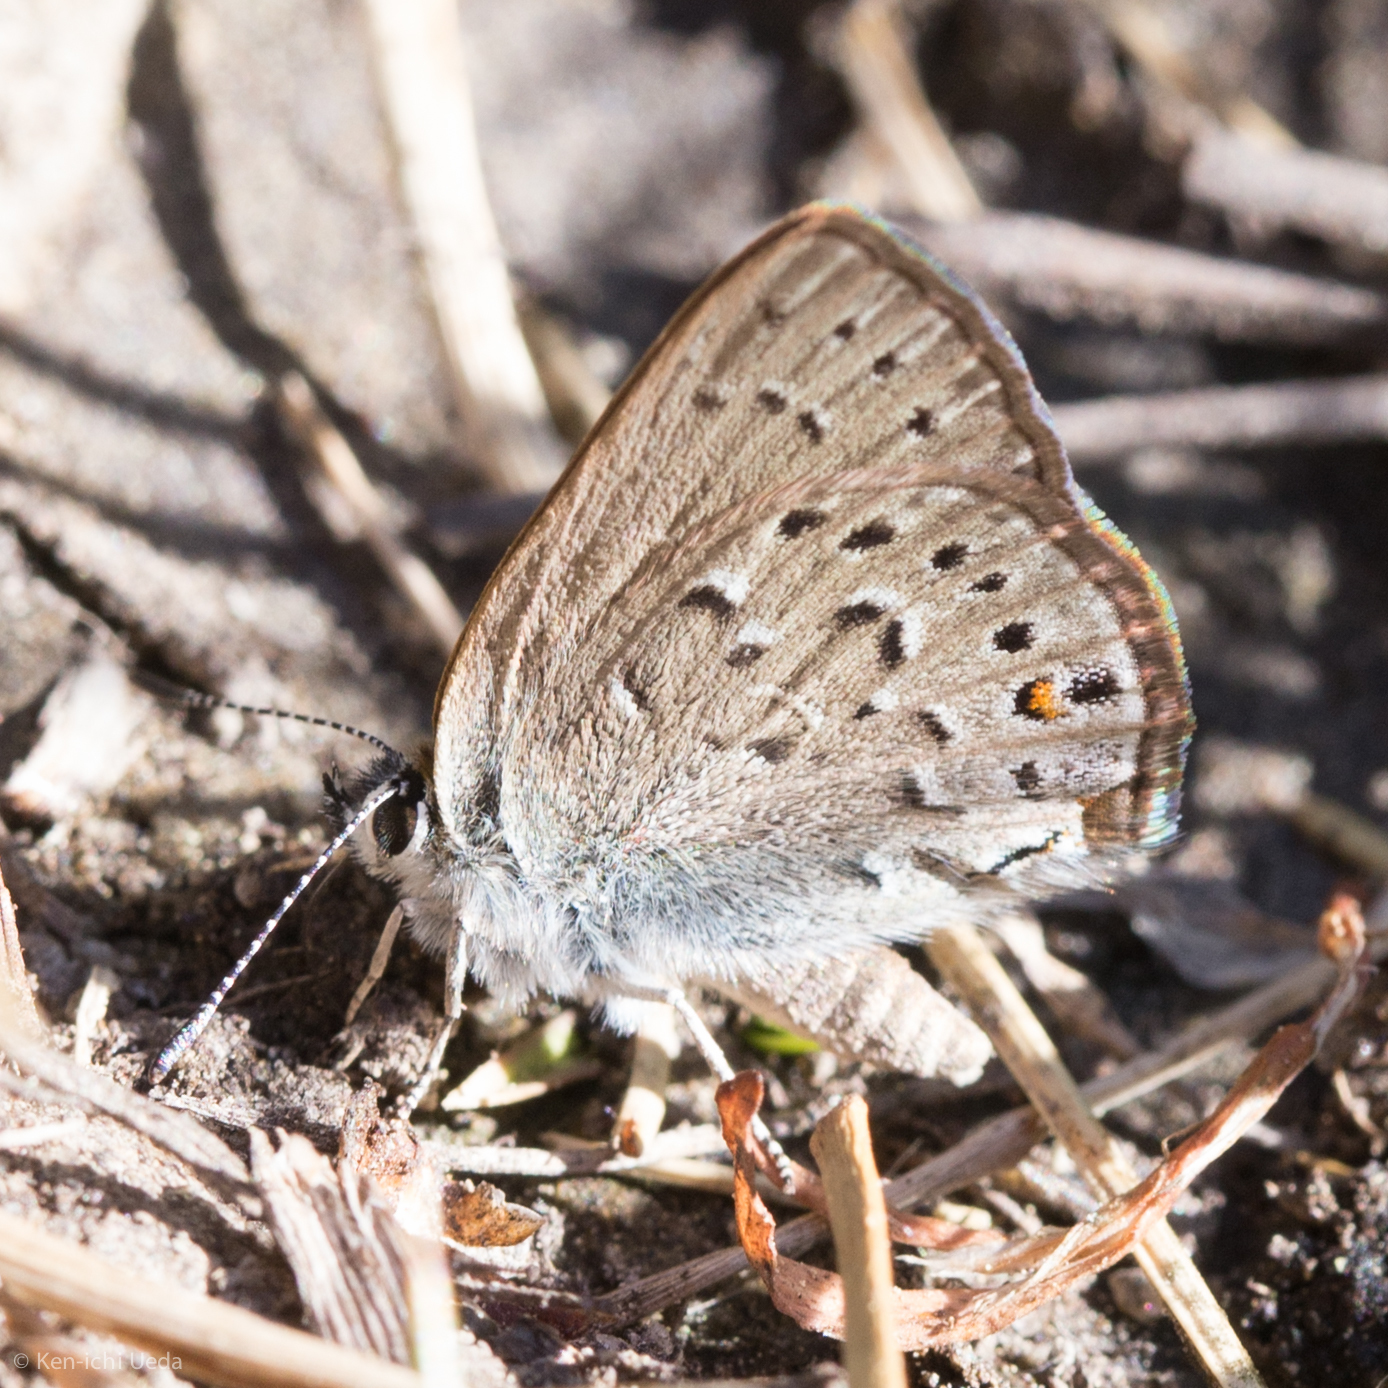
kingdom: Animalia
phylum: Arthropoda
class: Insecta
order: Lepidoptera
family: Lycaenidae
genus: Satyrium
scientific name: Satyrium behrii
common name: Behr's hairstreak
